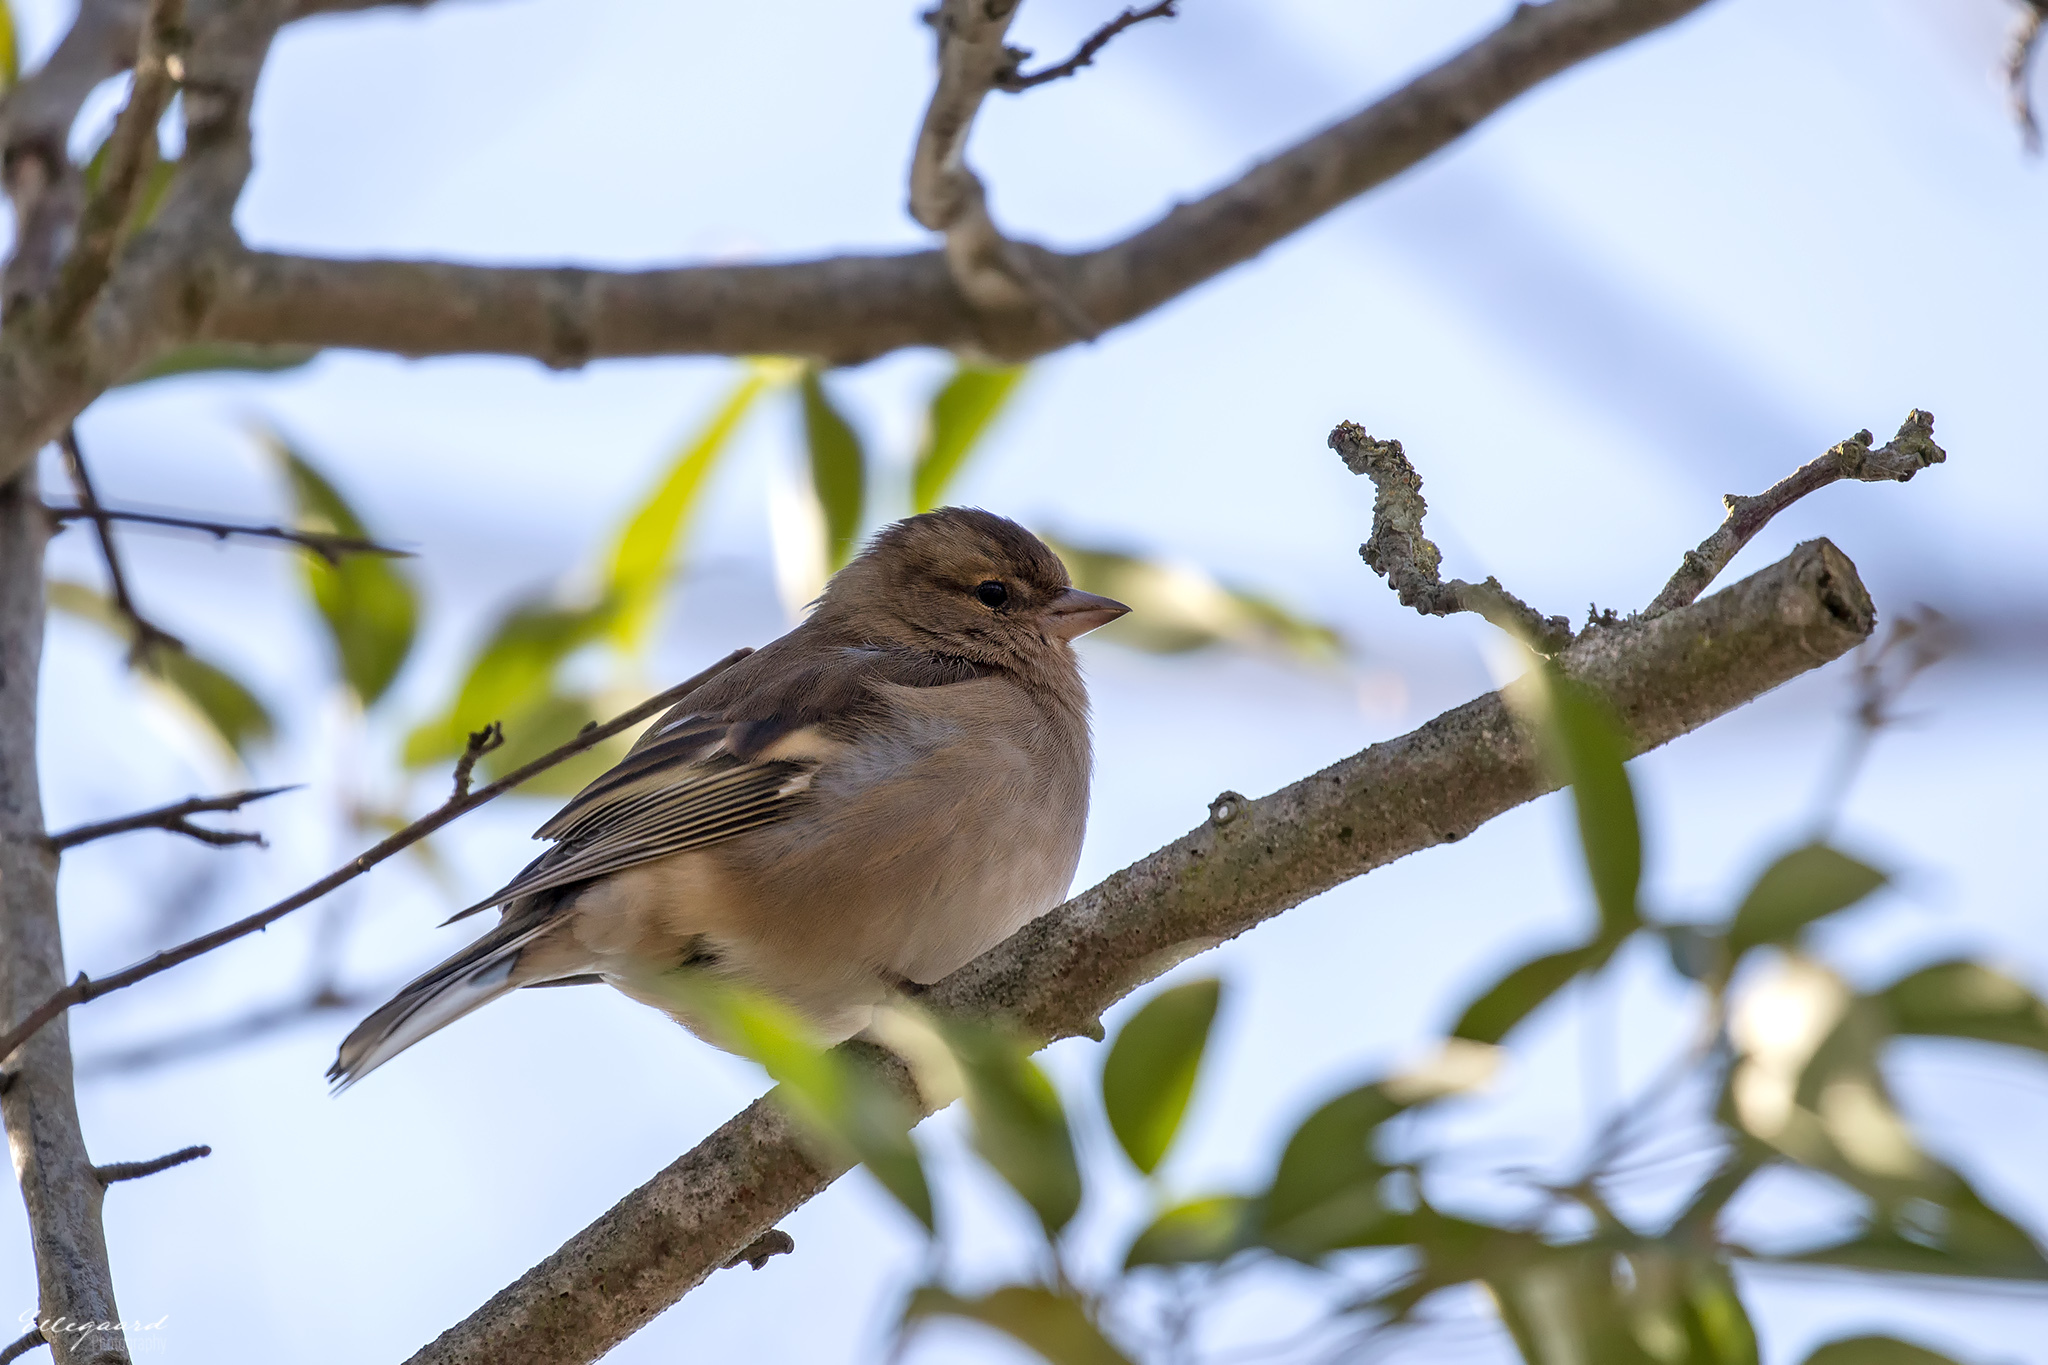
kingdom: Animalia
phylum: Chordata
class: Aves
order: Passeriformes
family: Fringillidae
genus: Fringilla
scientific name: Fringilla coelebs
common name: Common chaffinch
